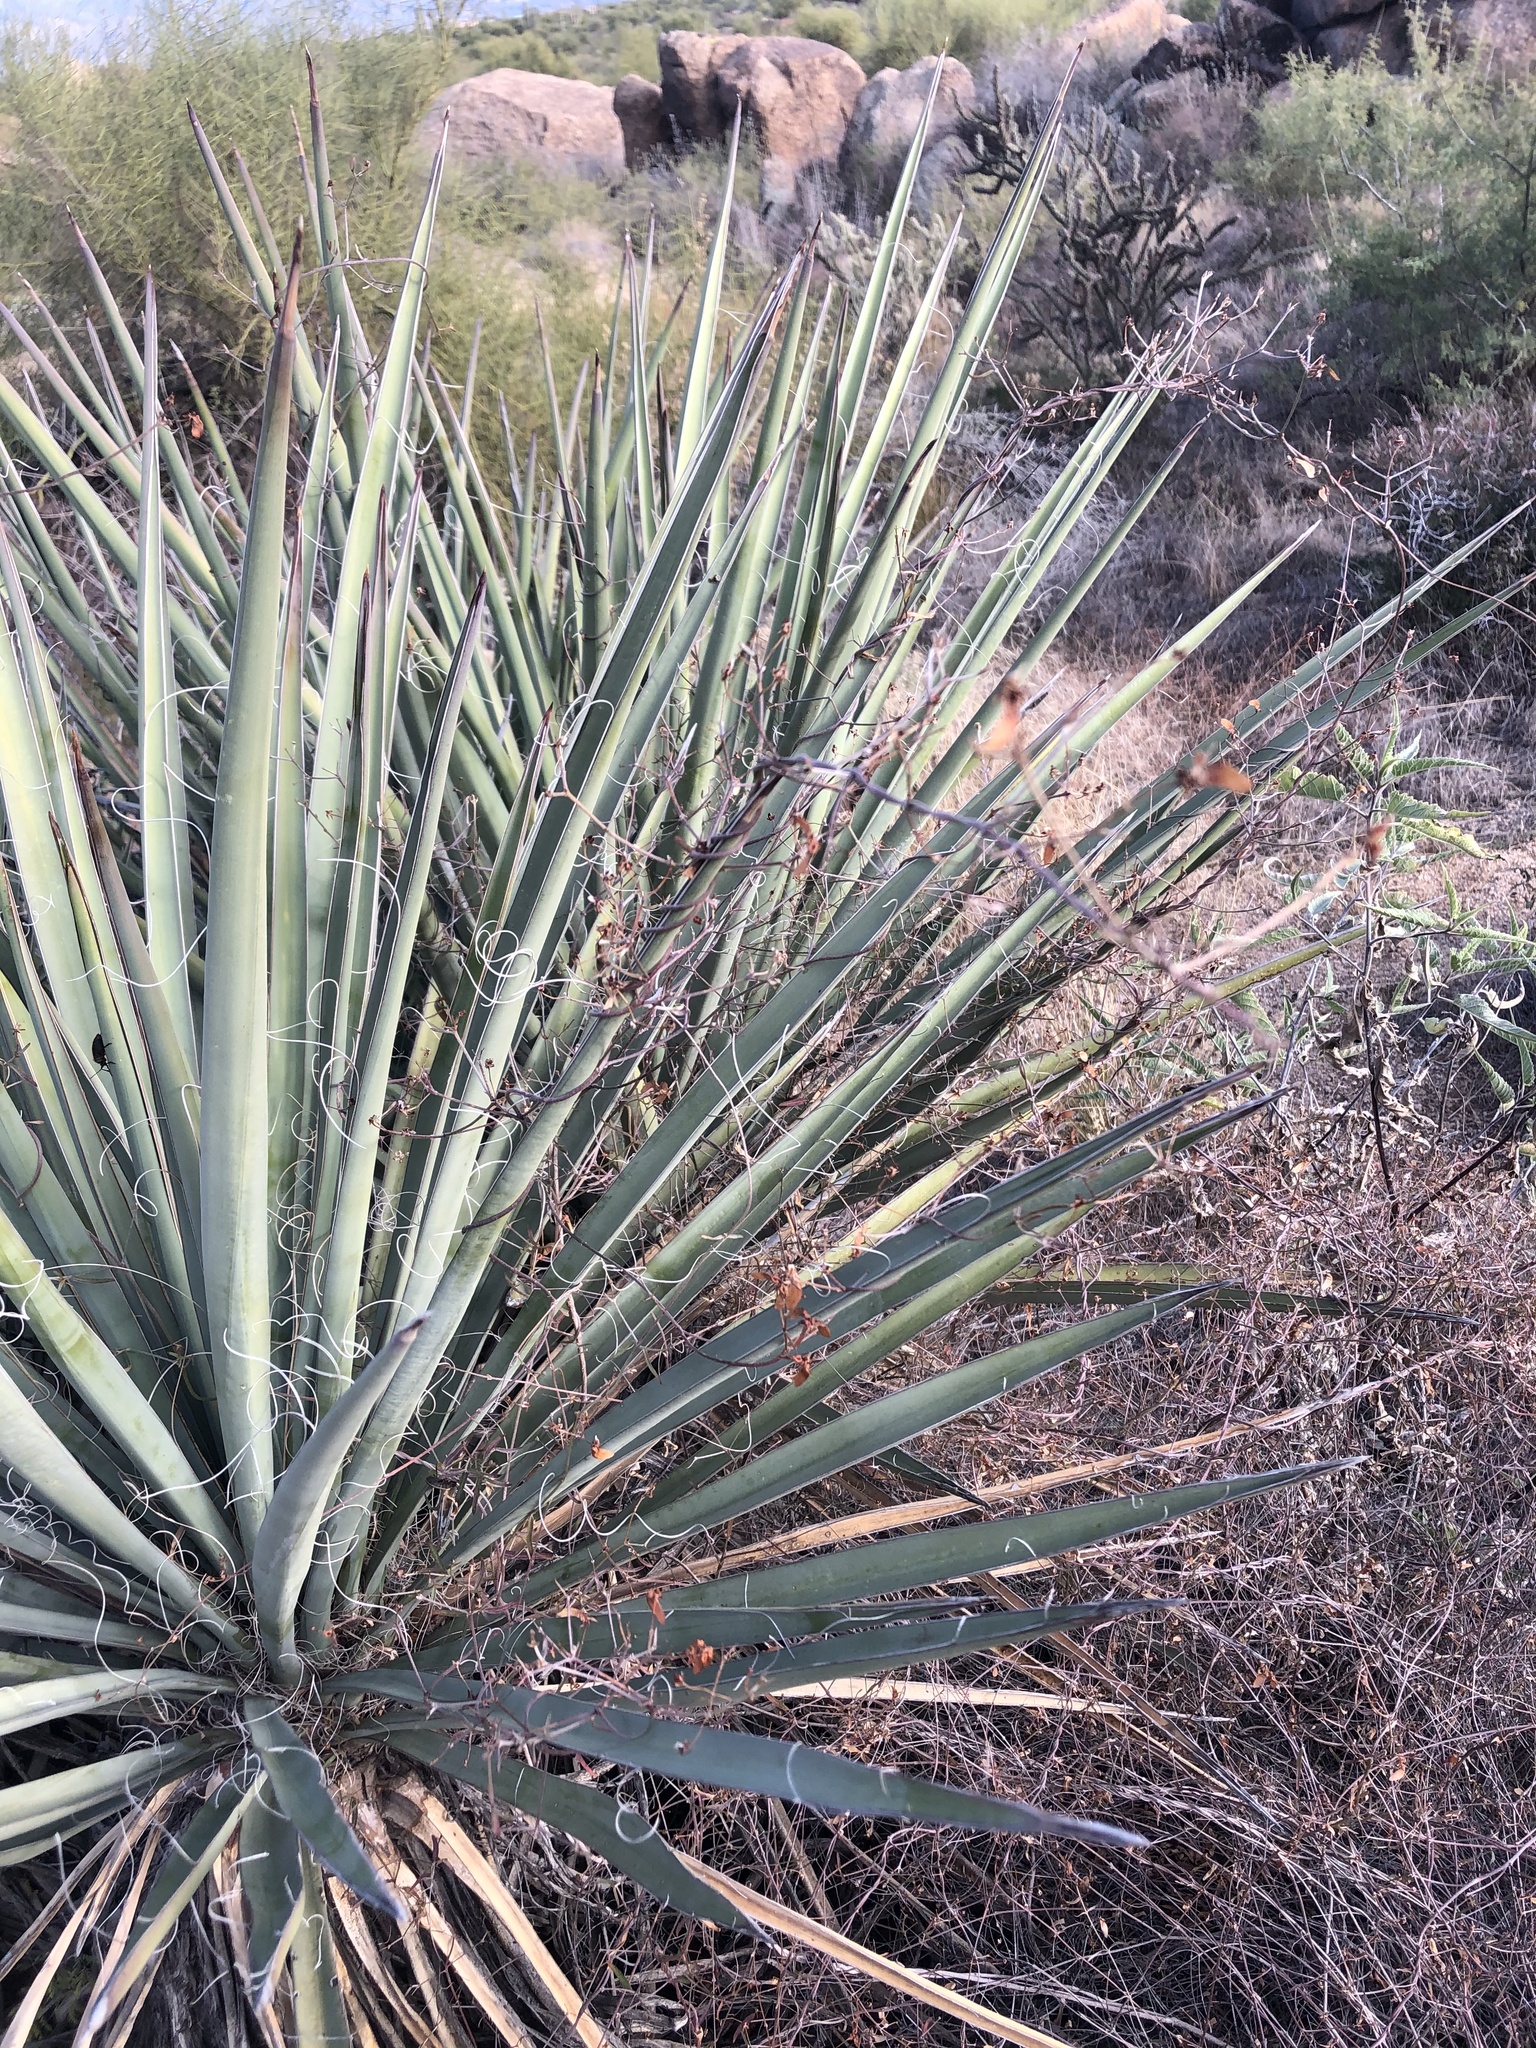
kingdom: Plantae
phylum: Tracheophyta
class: Liliopsida
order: Asparagales
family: Asparagaceae
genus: Yucca
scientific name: Yucca baccata
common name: Banana yucca
